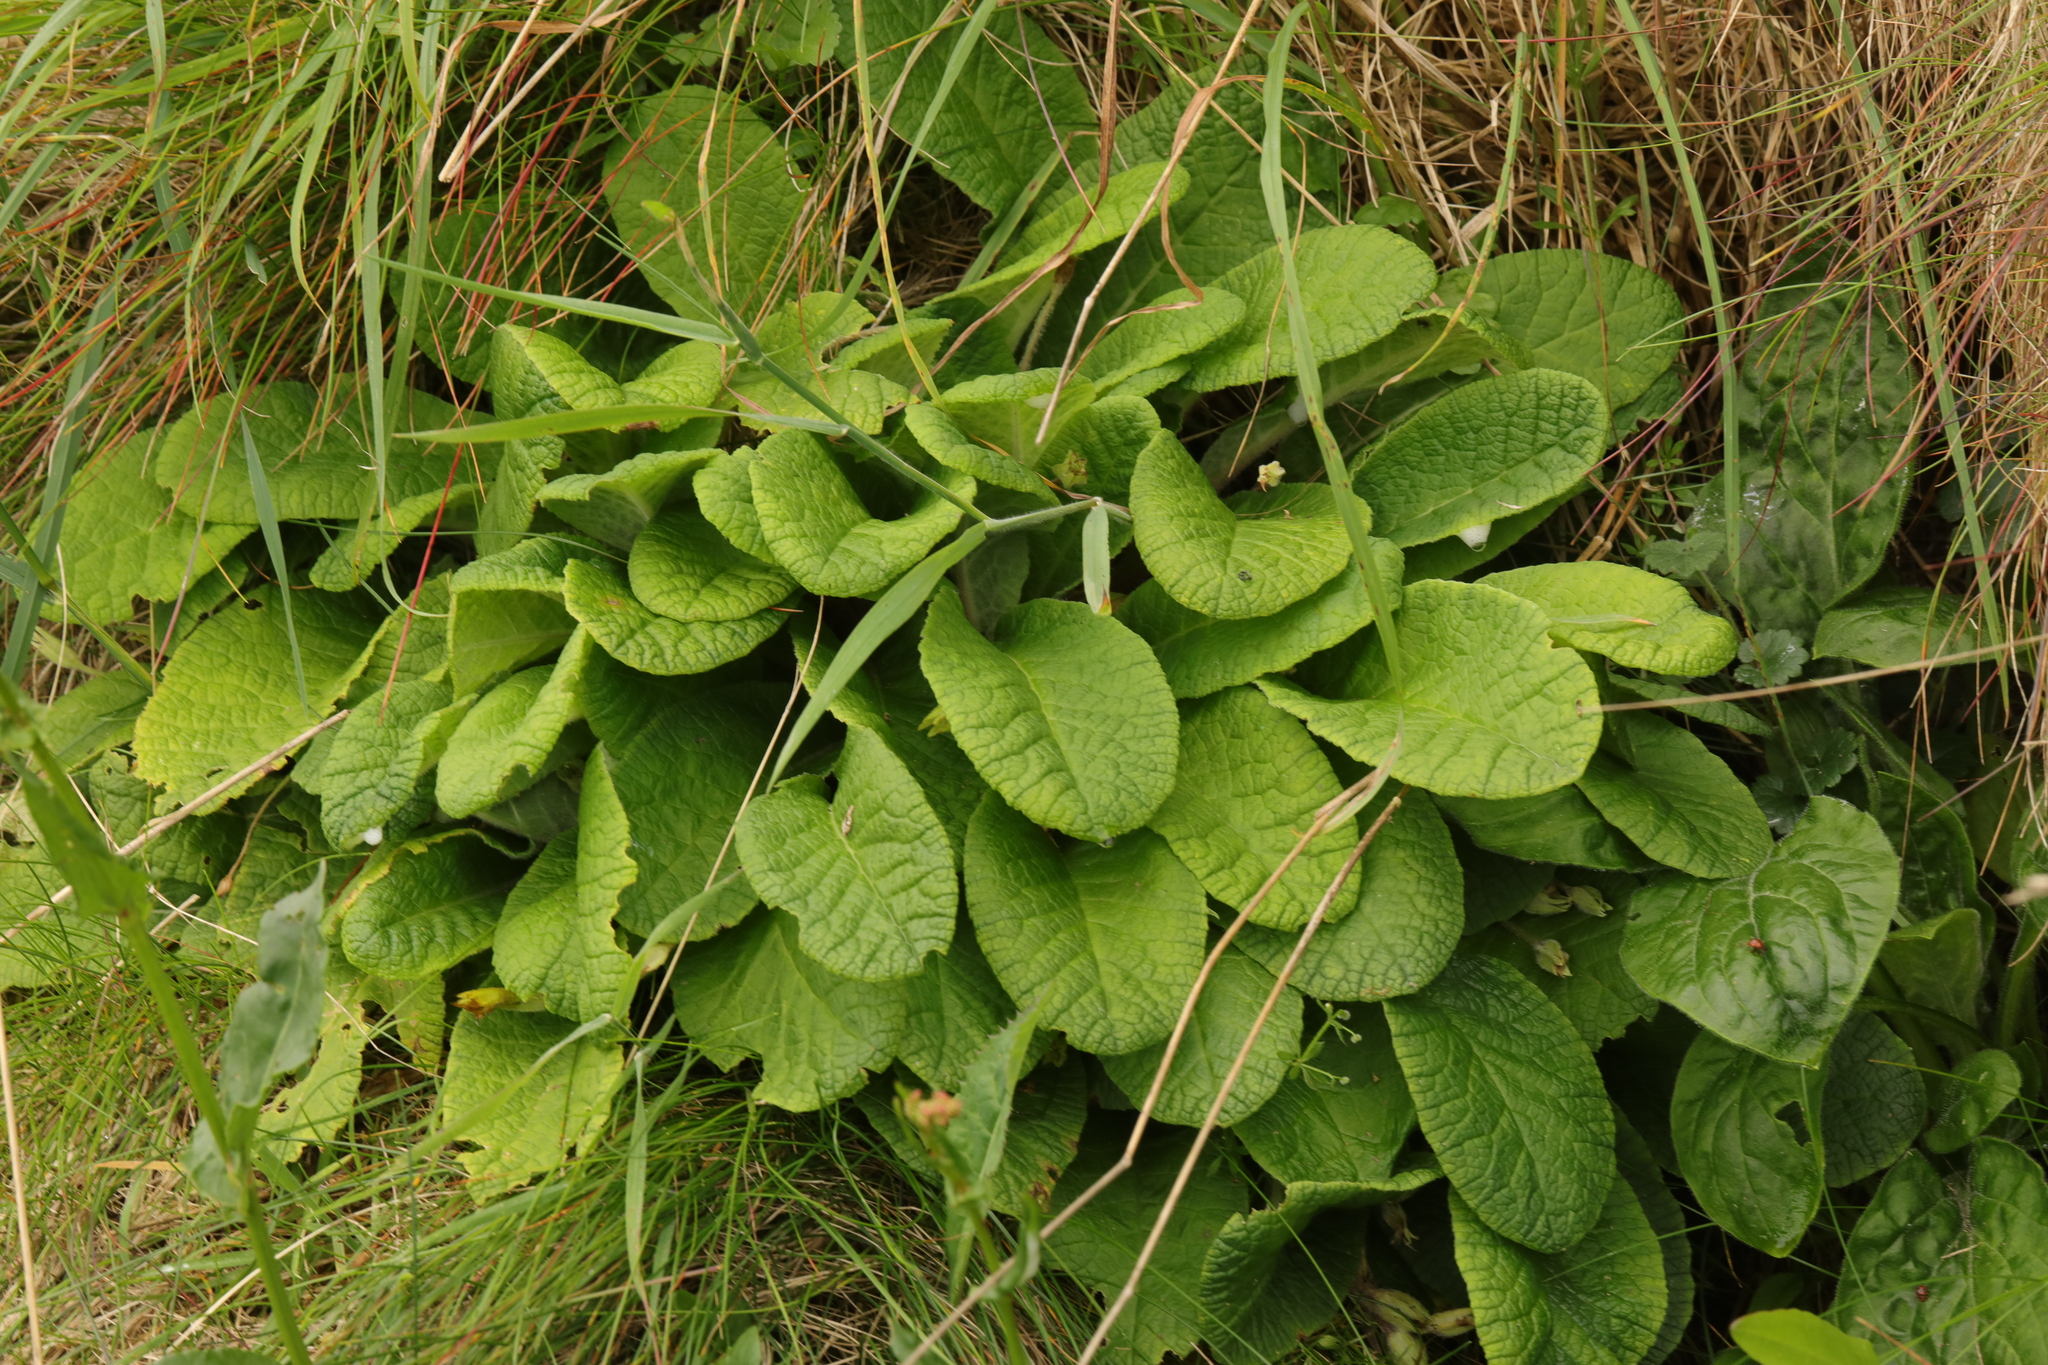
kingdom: Plantae
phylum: Tracheophyta
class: Magnoliopsida
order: Ericales
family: Primulaceae
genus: Primula
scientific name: Primula vulgaris
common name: Primrose
